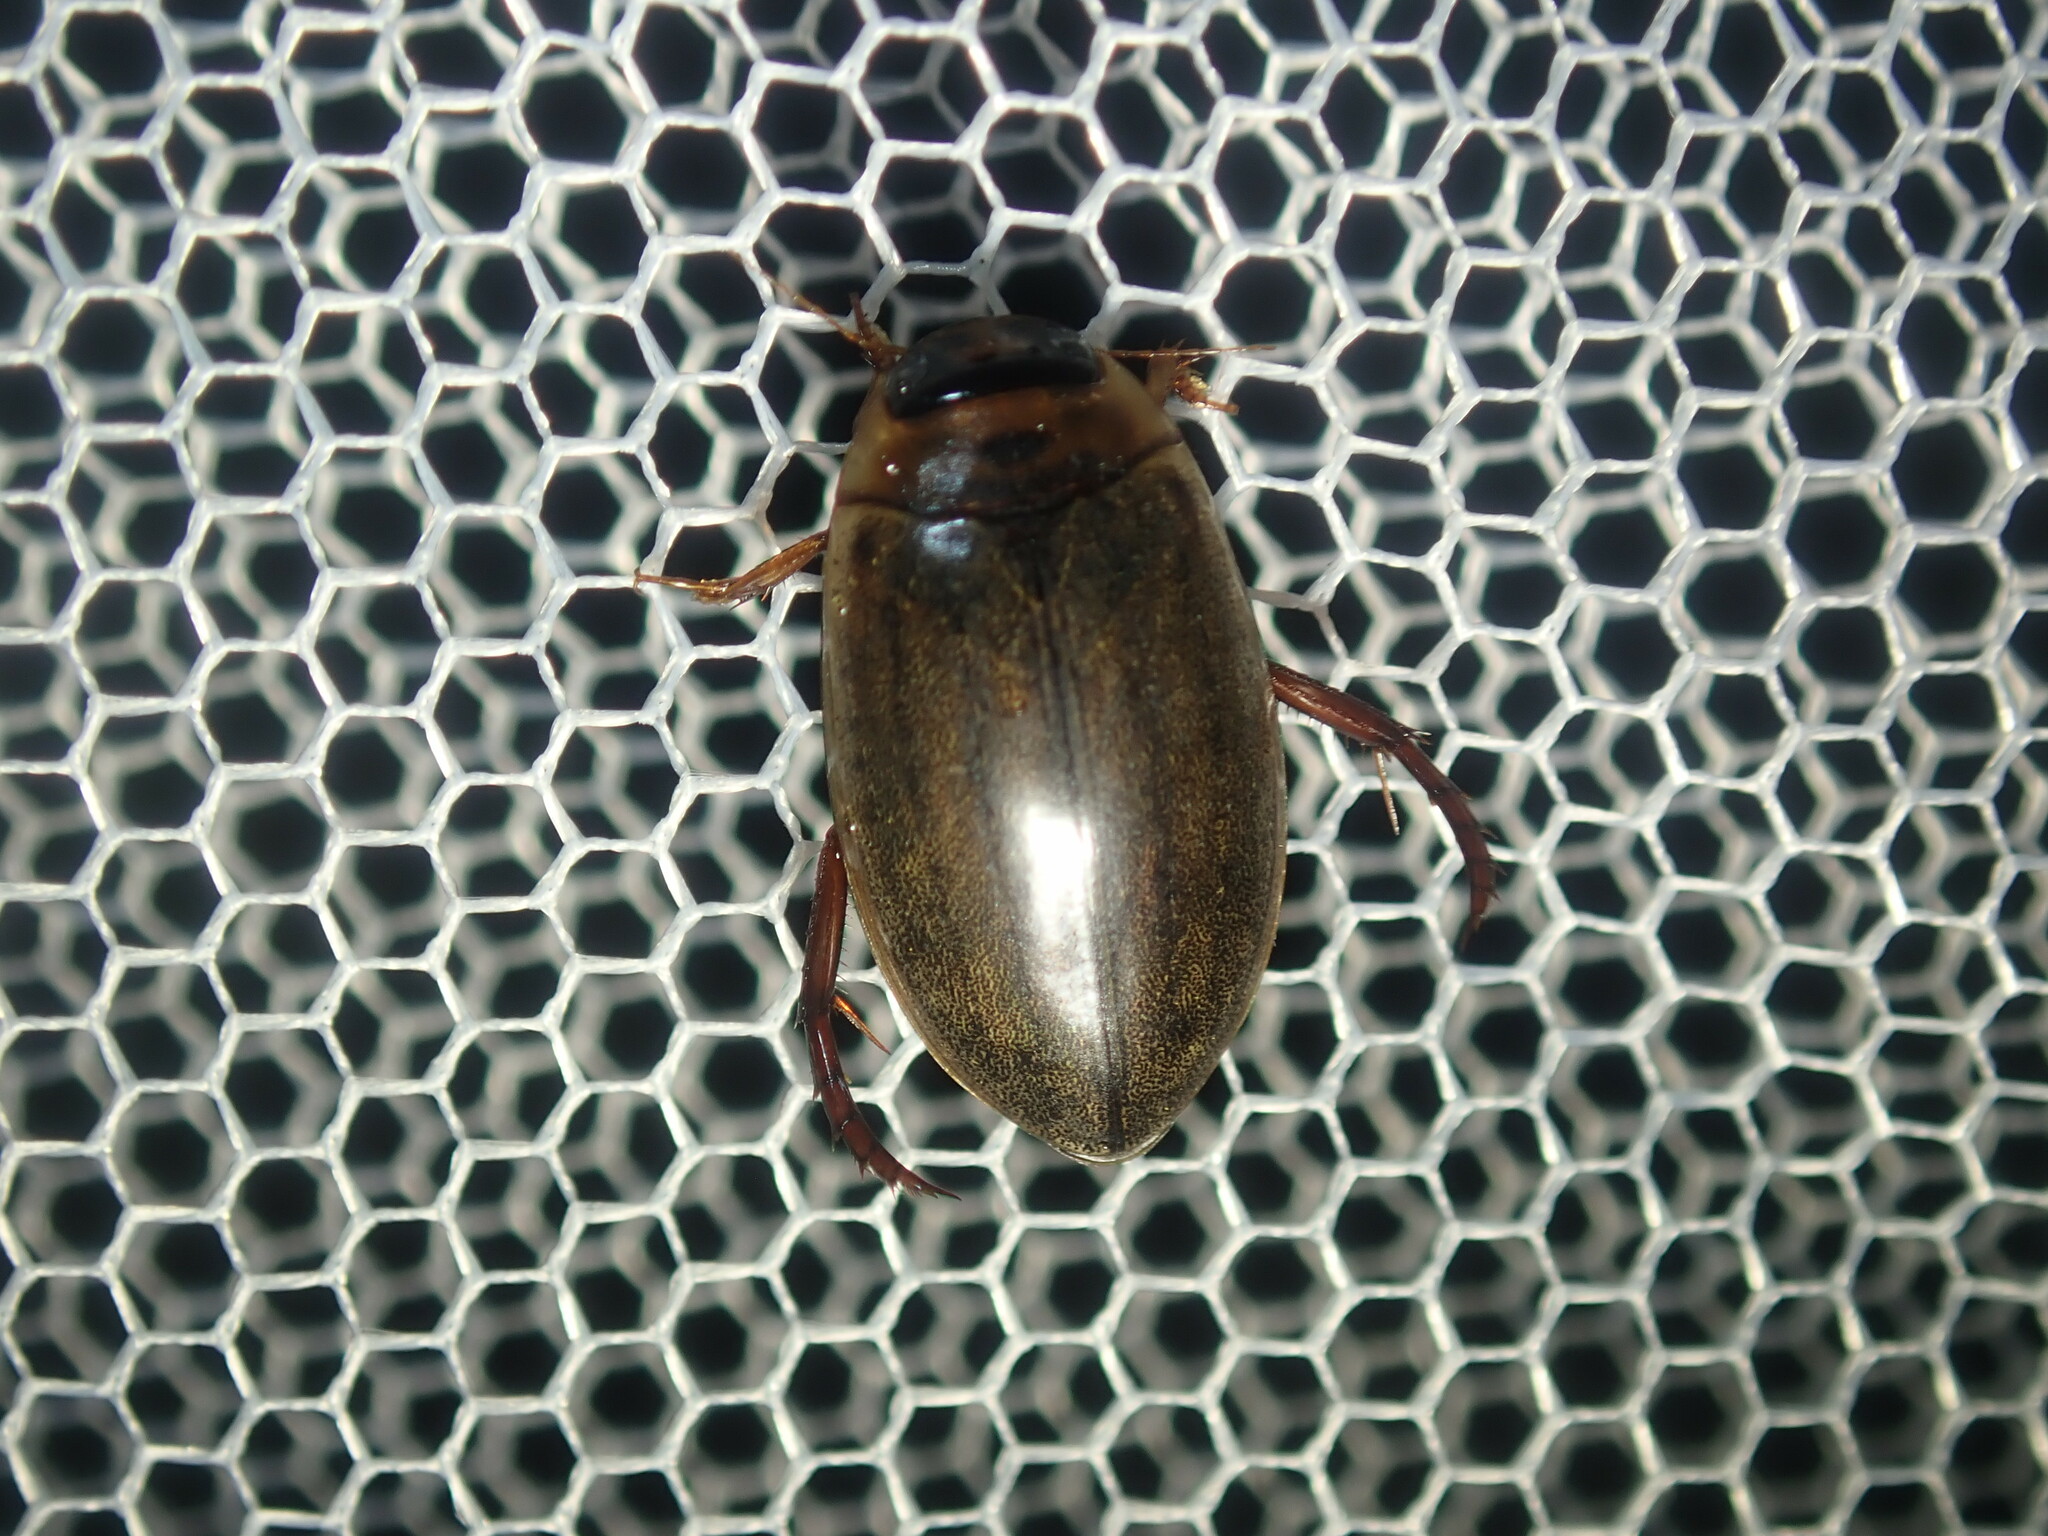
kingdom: Animalia
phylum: Arthropoda
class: Insecta
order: Coleoptera
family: Dytiscidae
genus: Rhantus
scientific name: Rhantus suturalis
